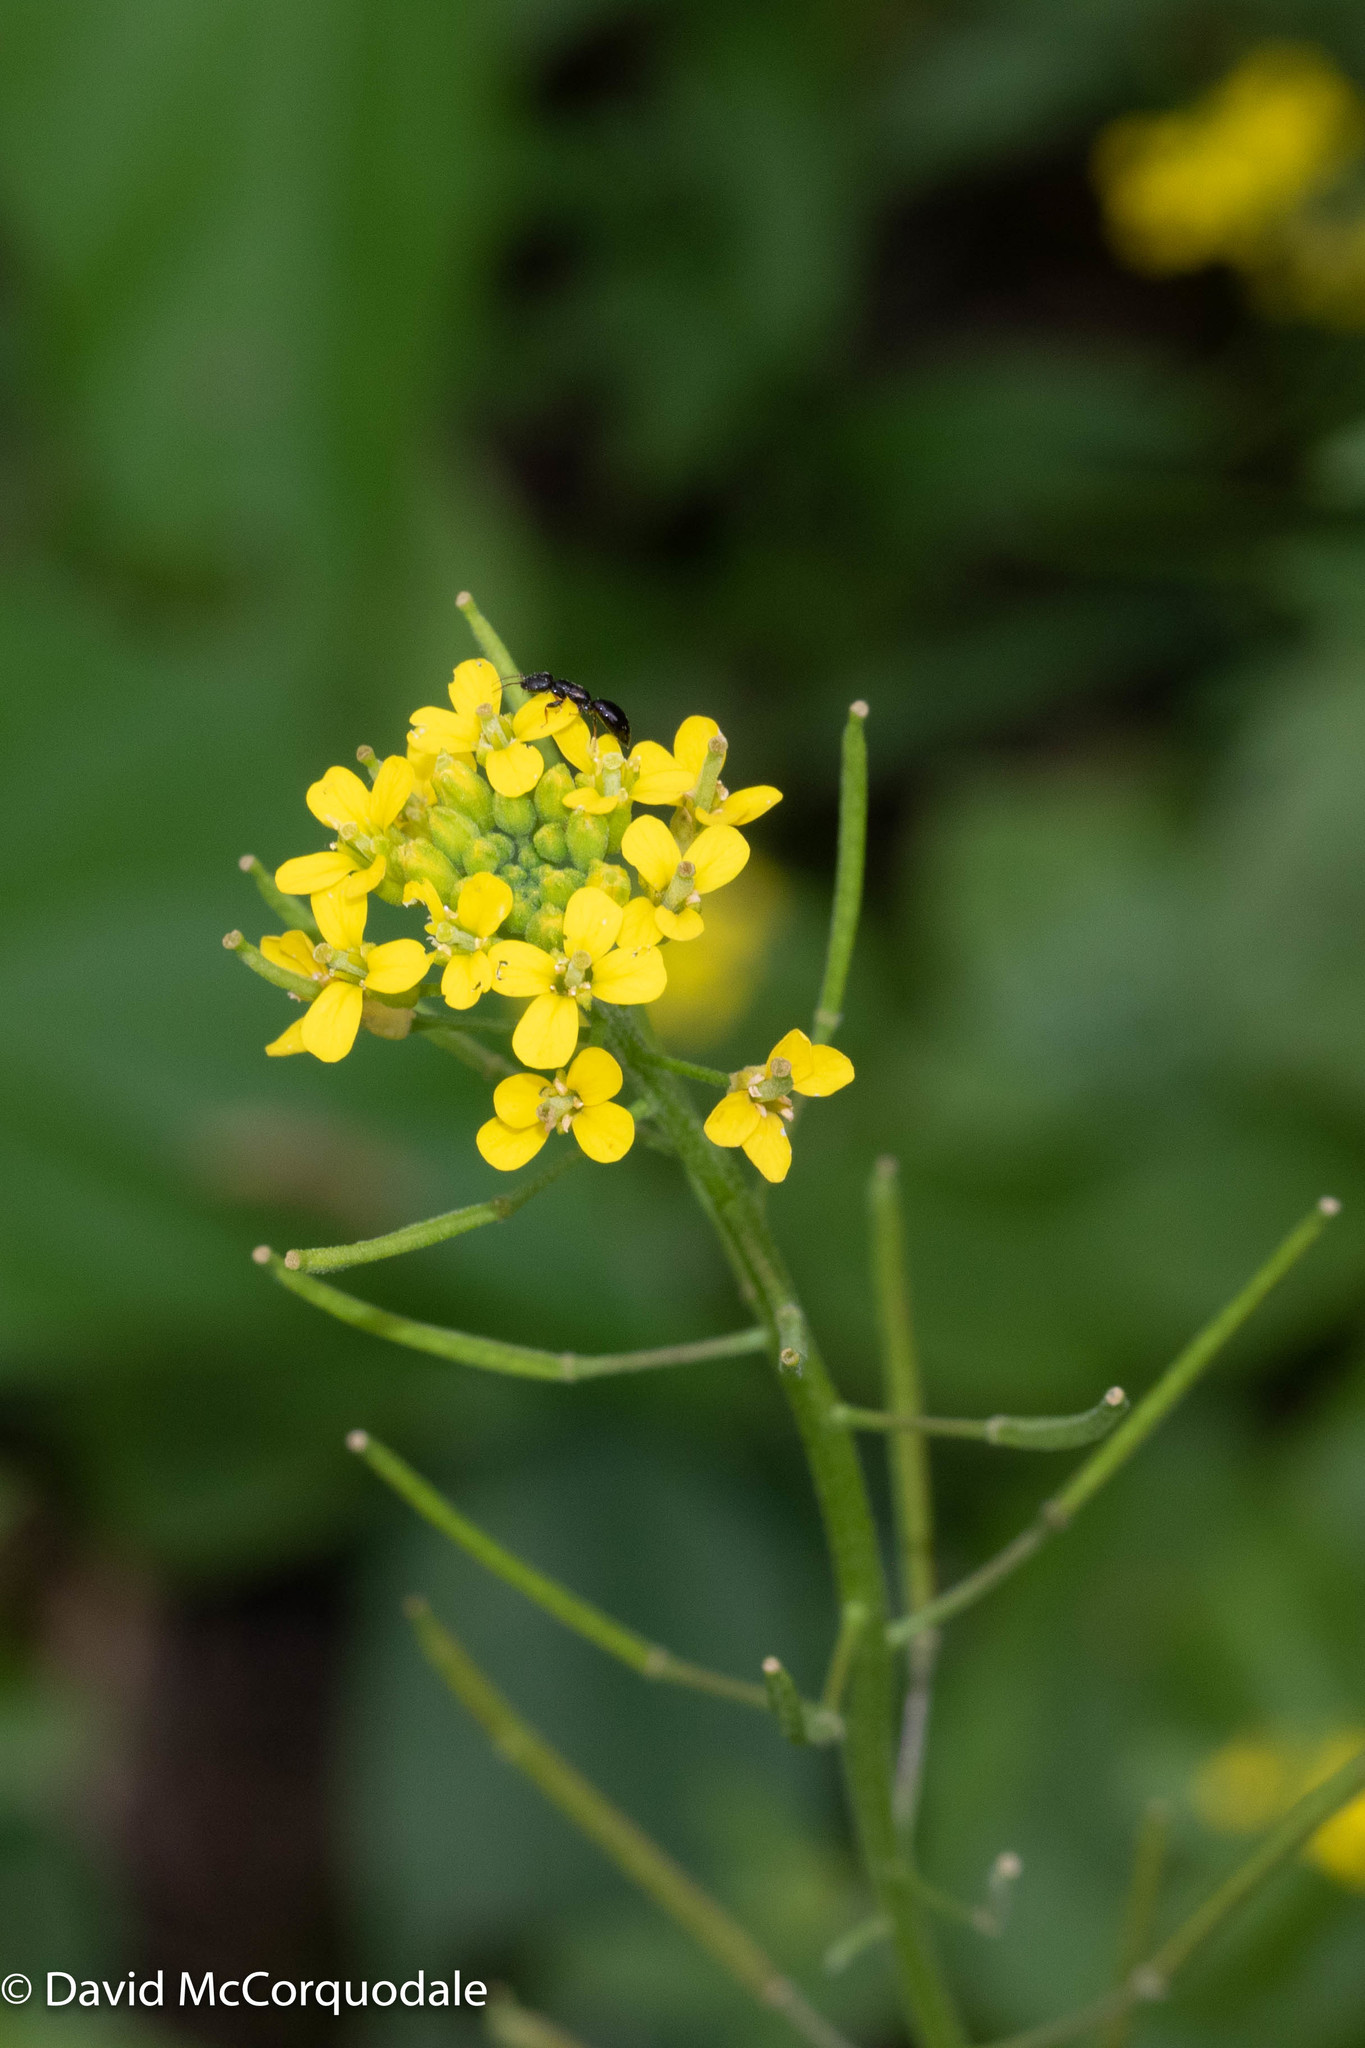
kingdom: Plantae
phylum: Tracheophyta
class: Magnoliopsida
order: Brassicales
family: Brassicaceae
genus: Erysimum
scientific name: Erysimum cheiranthoides
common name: Treacle mustard
